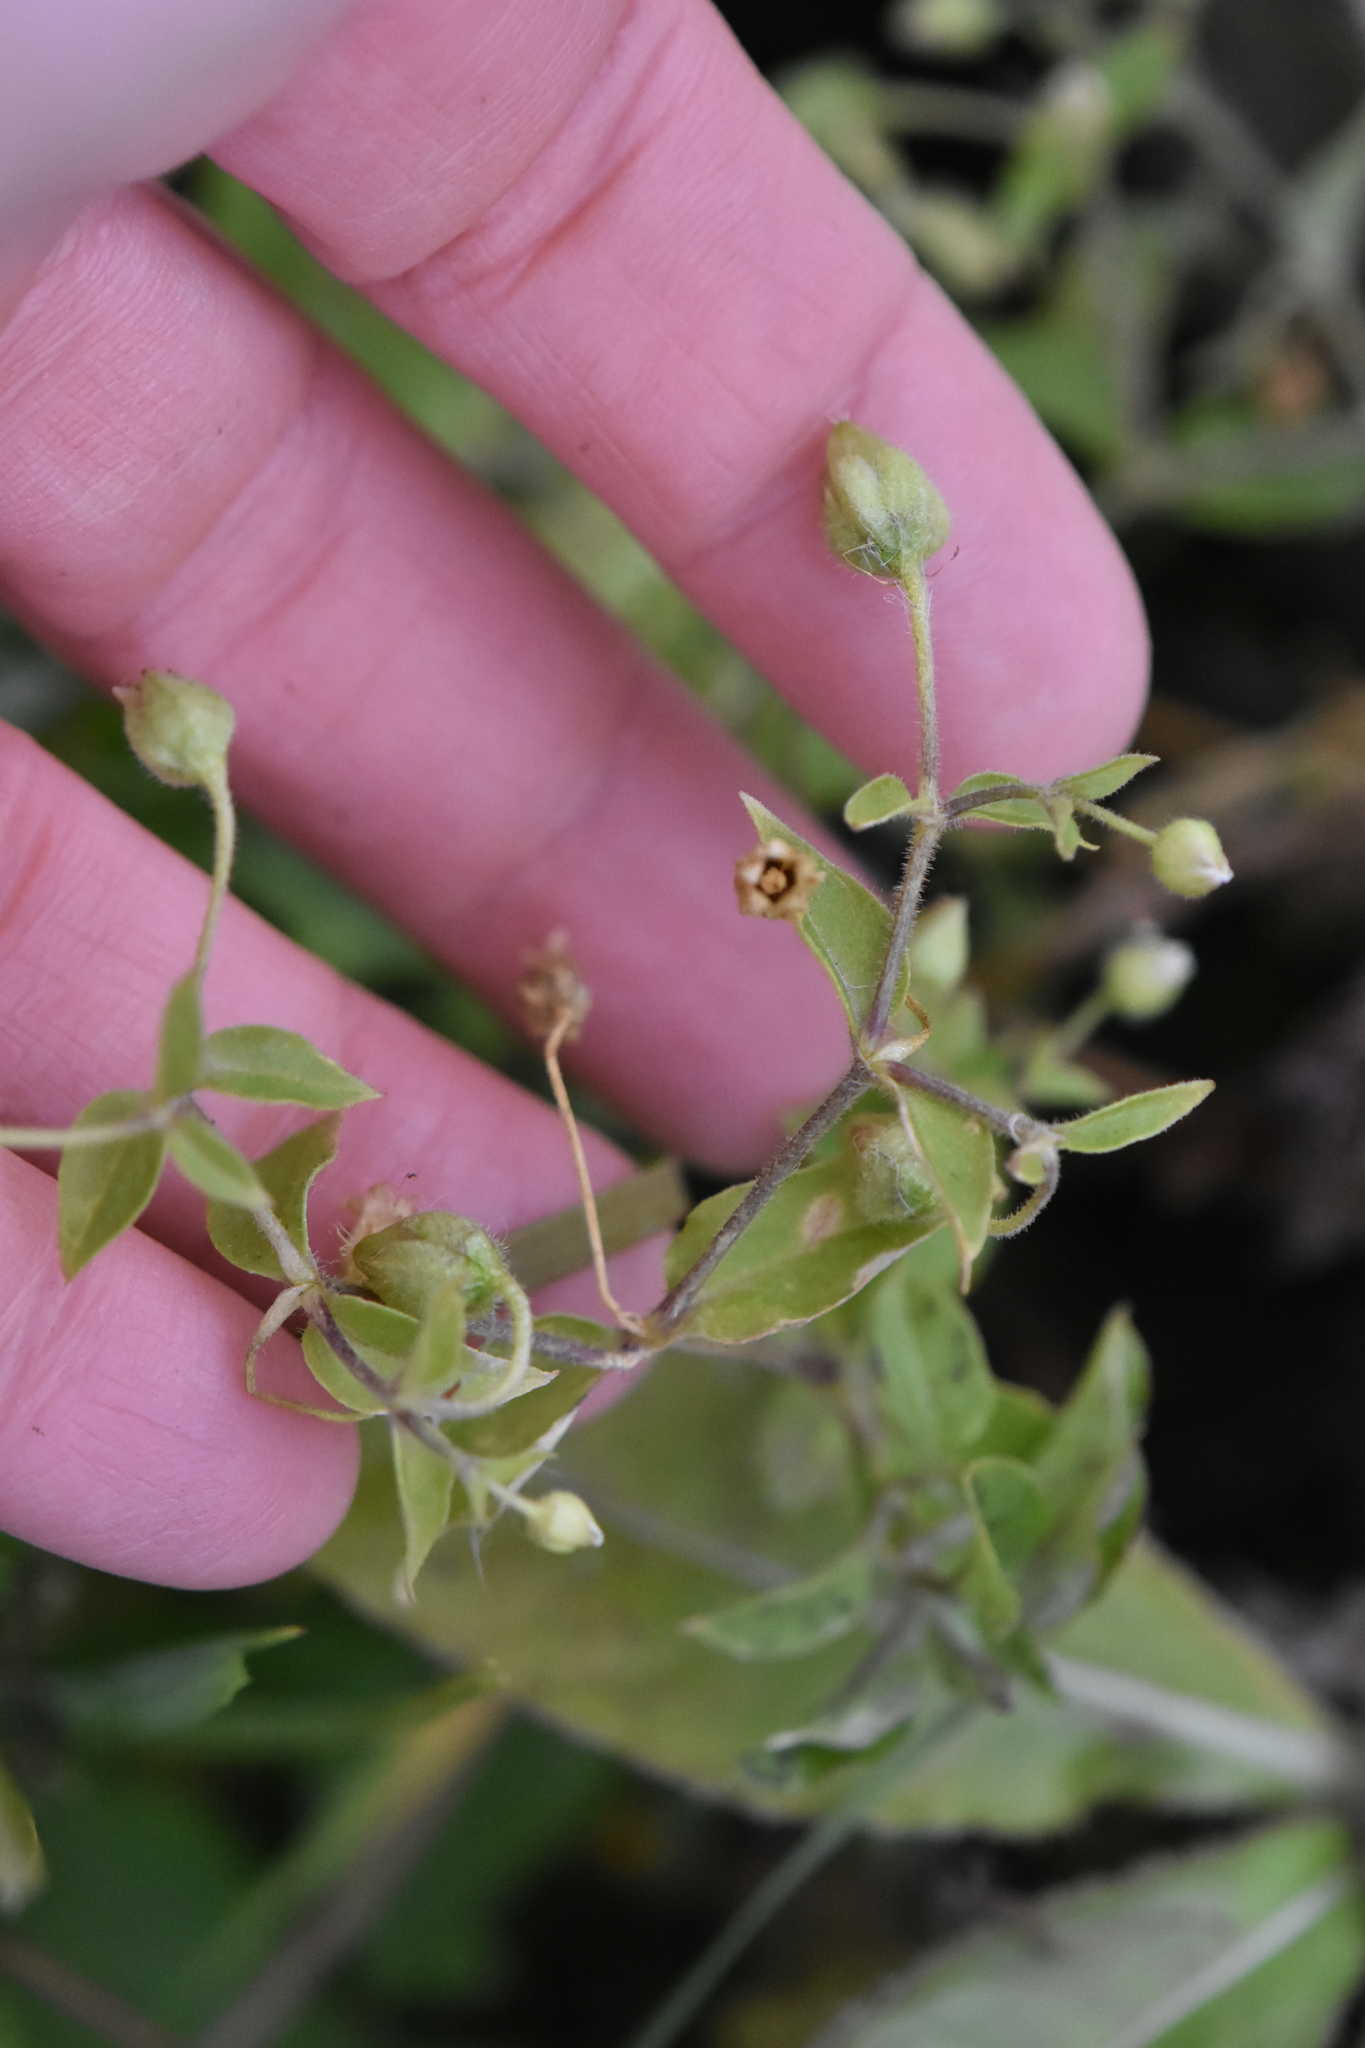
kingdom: Plantae
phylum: Tracheophyta
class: Magnoliopsida
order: Caryophyllales
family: Caryophyllaceae
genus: Stellaria
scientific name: Stellaria aquatica
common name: Water chickweed
